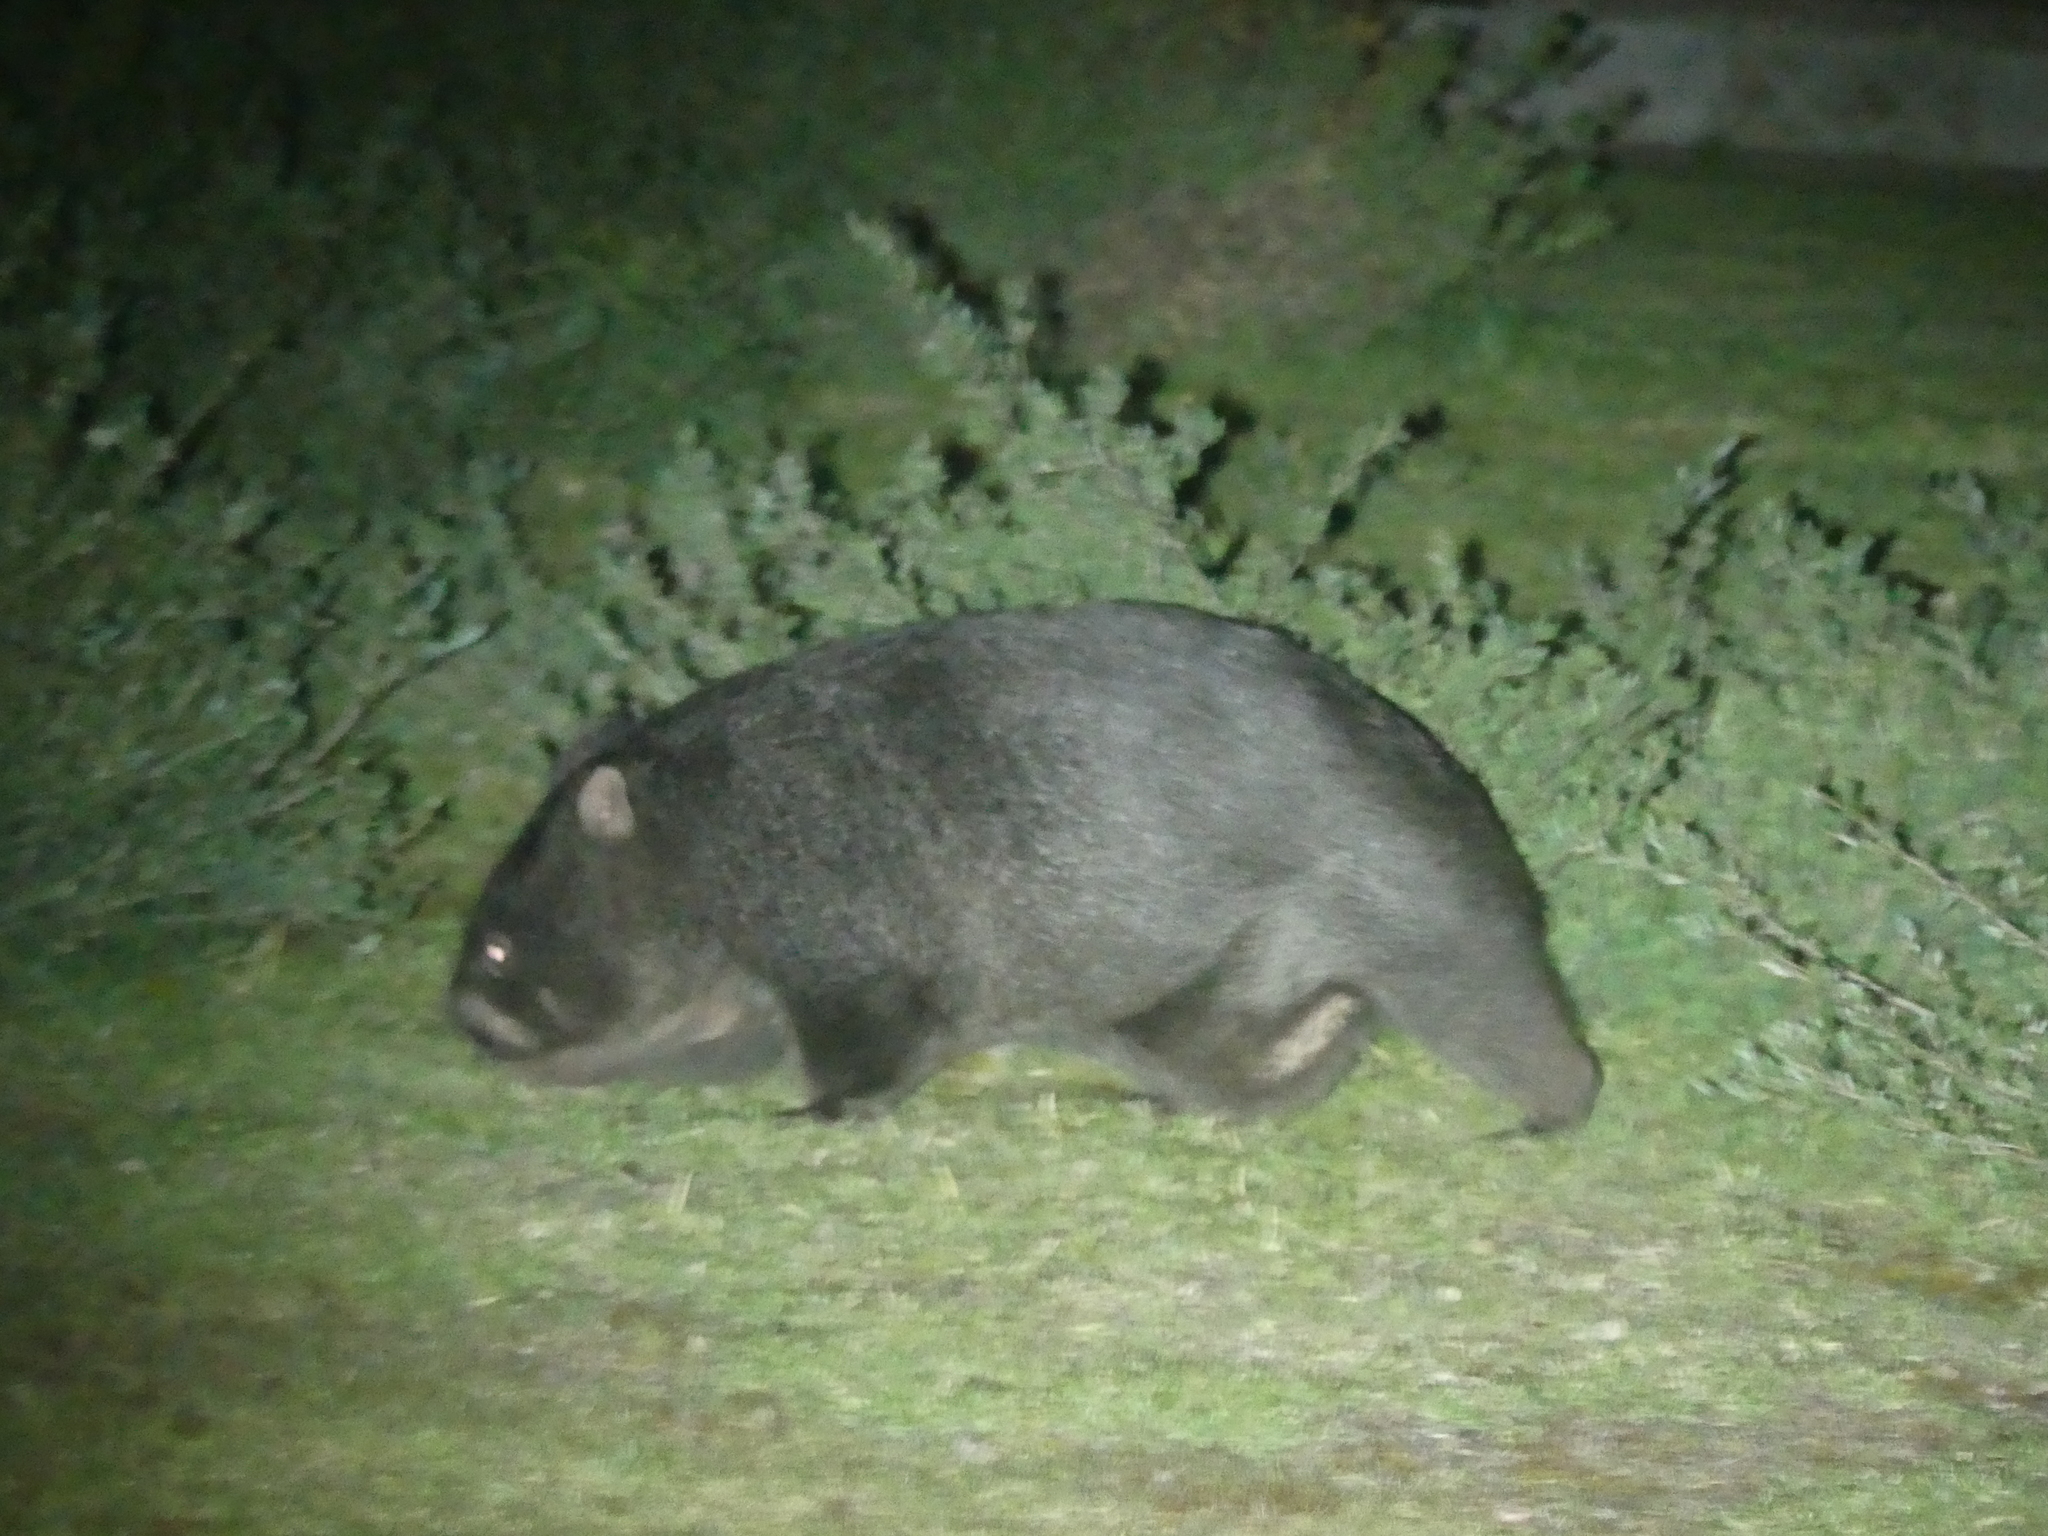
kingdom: Animalia
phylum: Chordata
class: Mammalia
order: Diprotodontia
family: Vombatidae
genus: Vombatus
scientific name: Vombatus ursinus
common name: Common wombat
